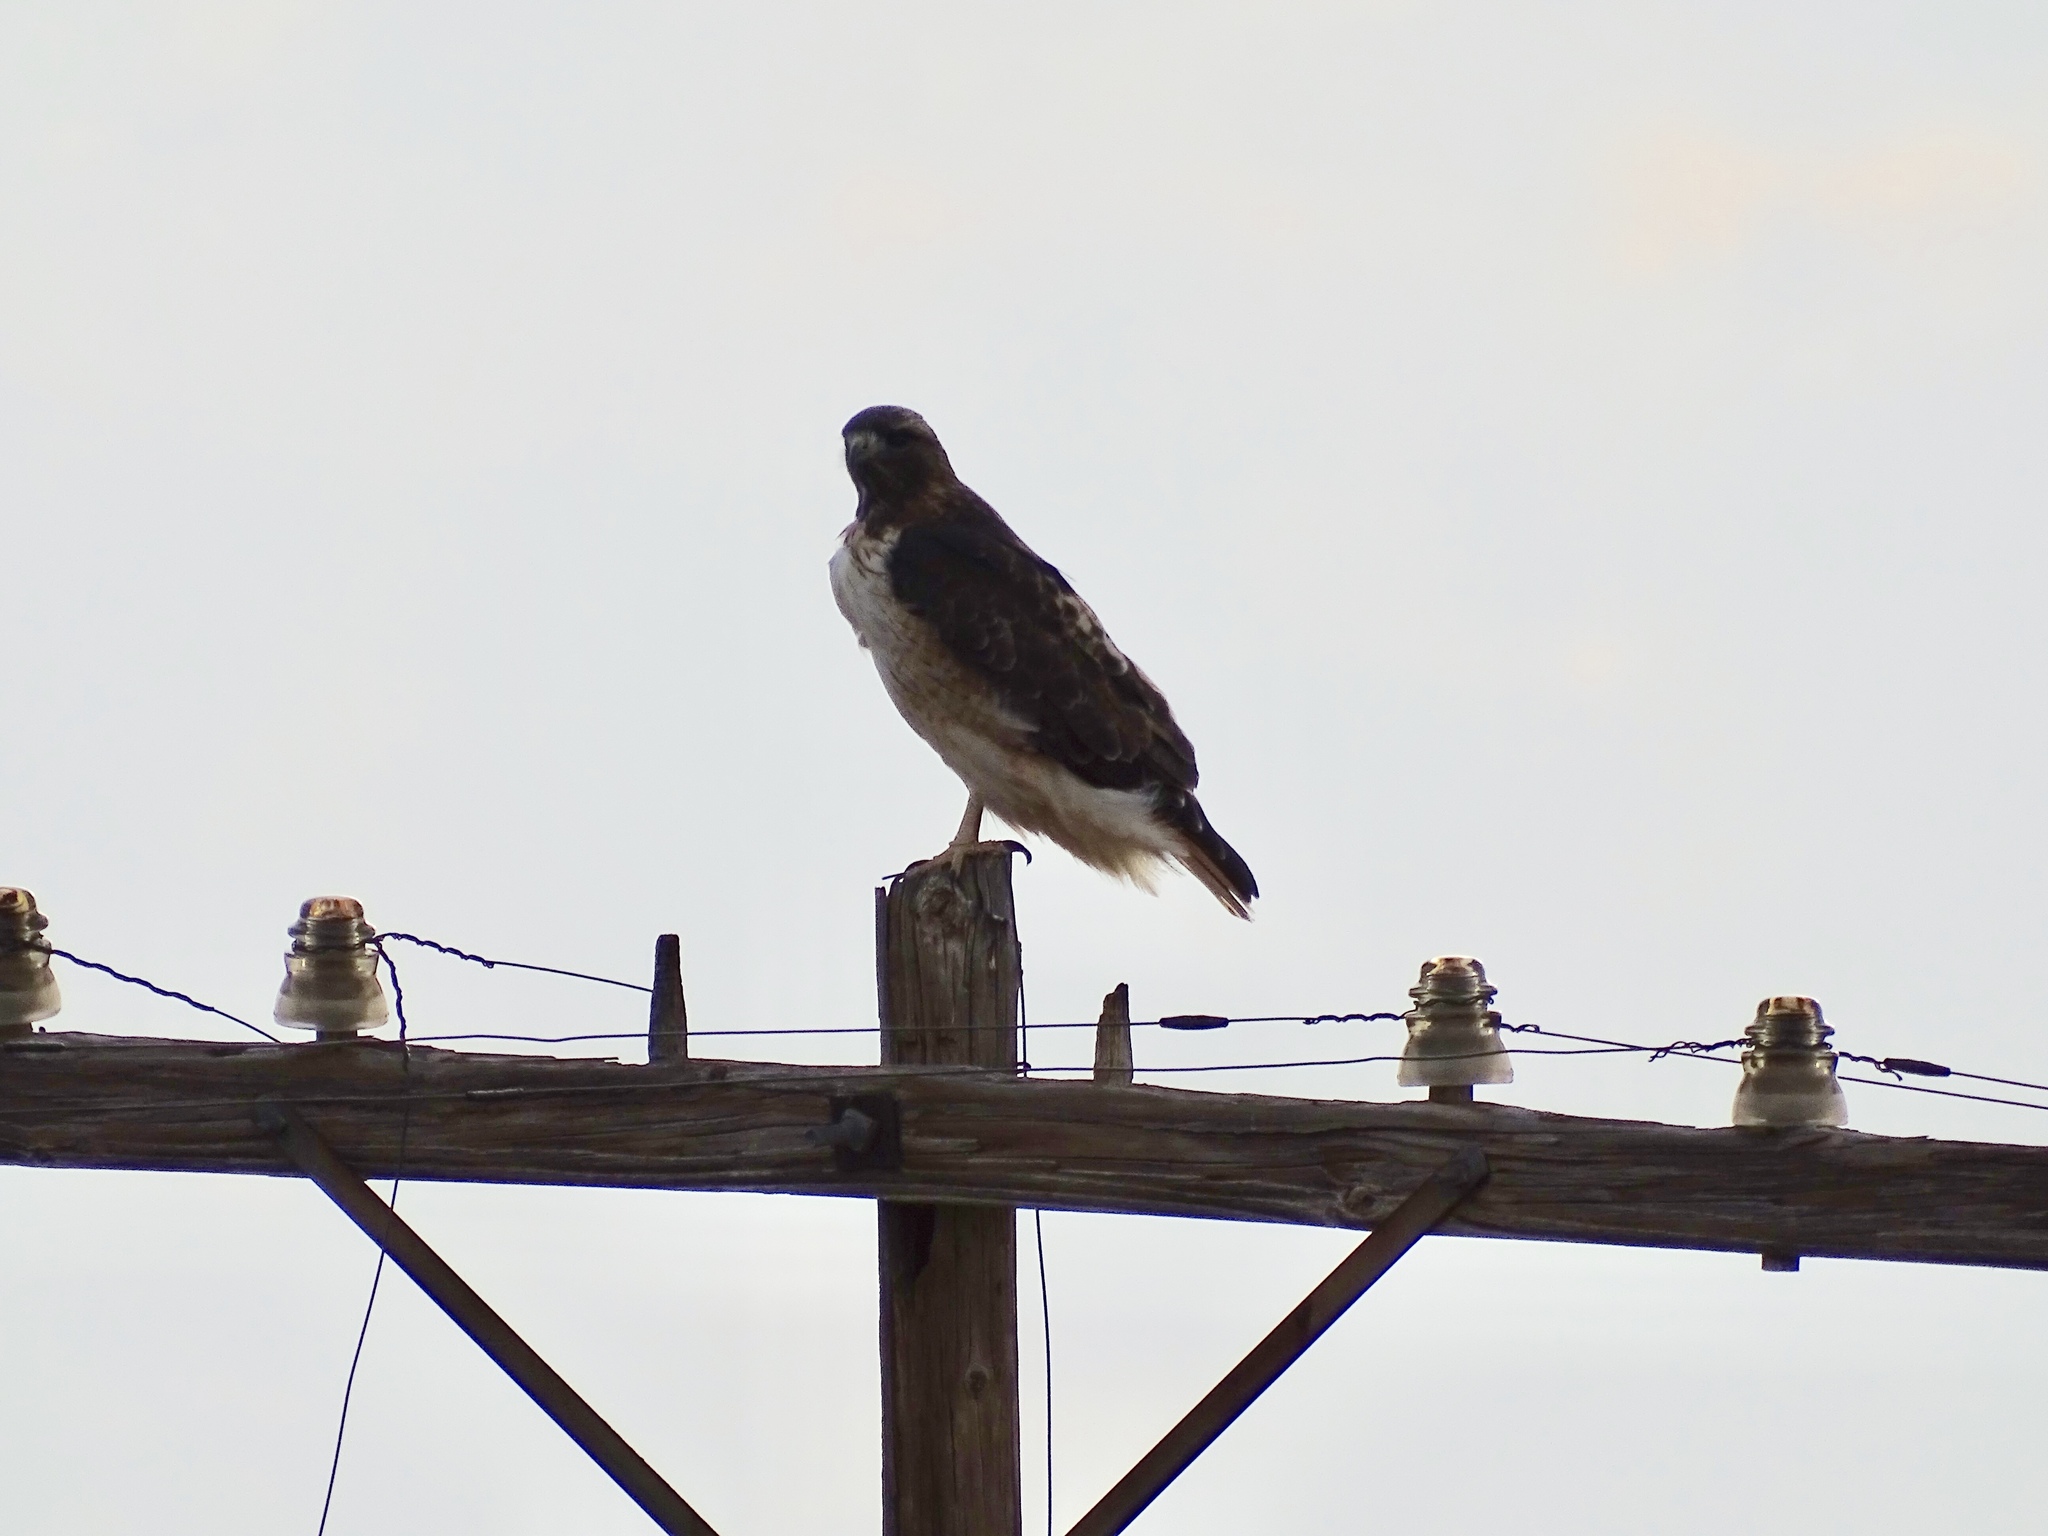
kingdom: Animalia
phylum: Chordata
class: Aves
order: Accipitriformes
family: Accipitridae
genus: Buteo
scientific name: Buteo jamaicensis
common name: Red-tailed hawk
